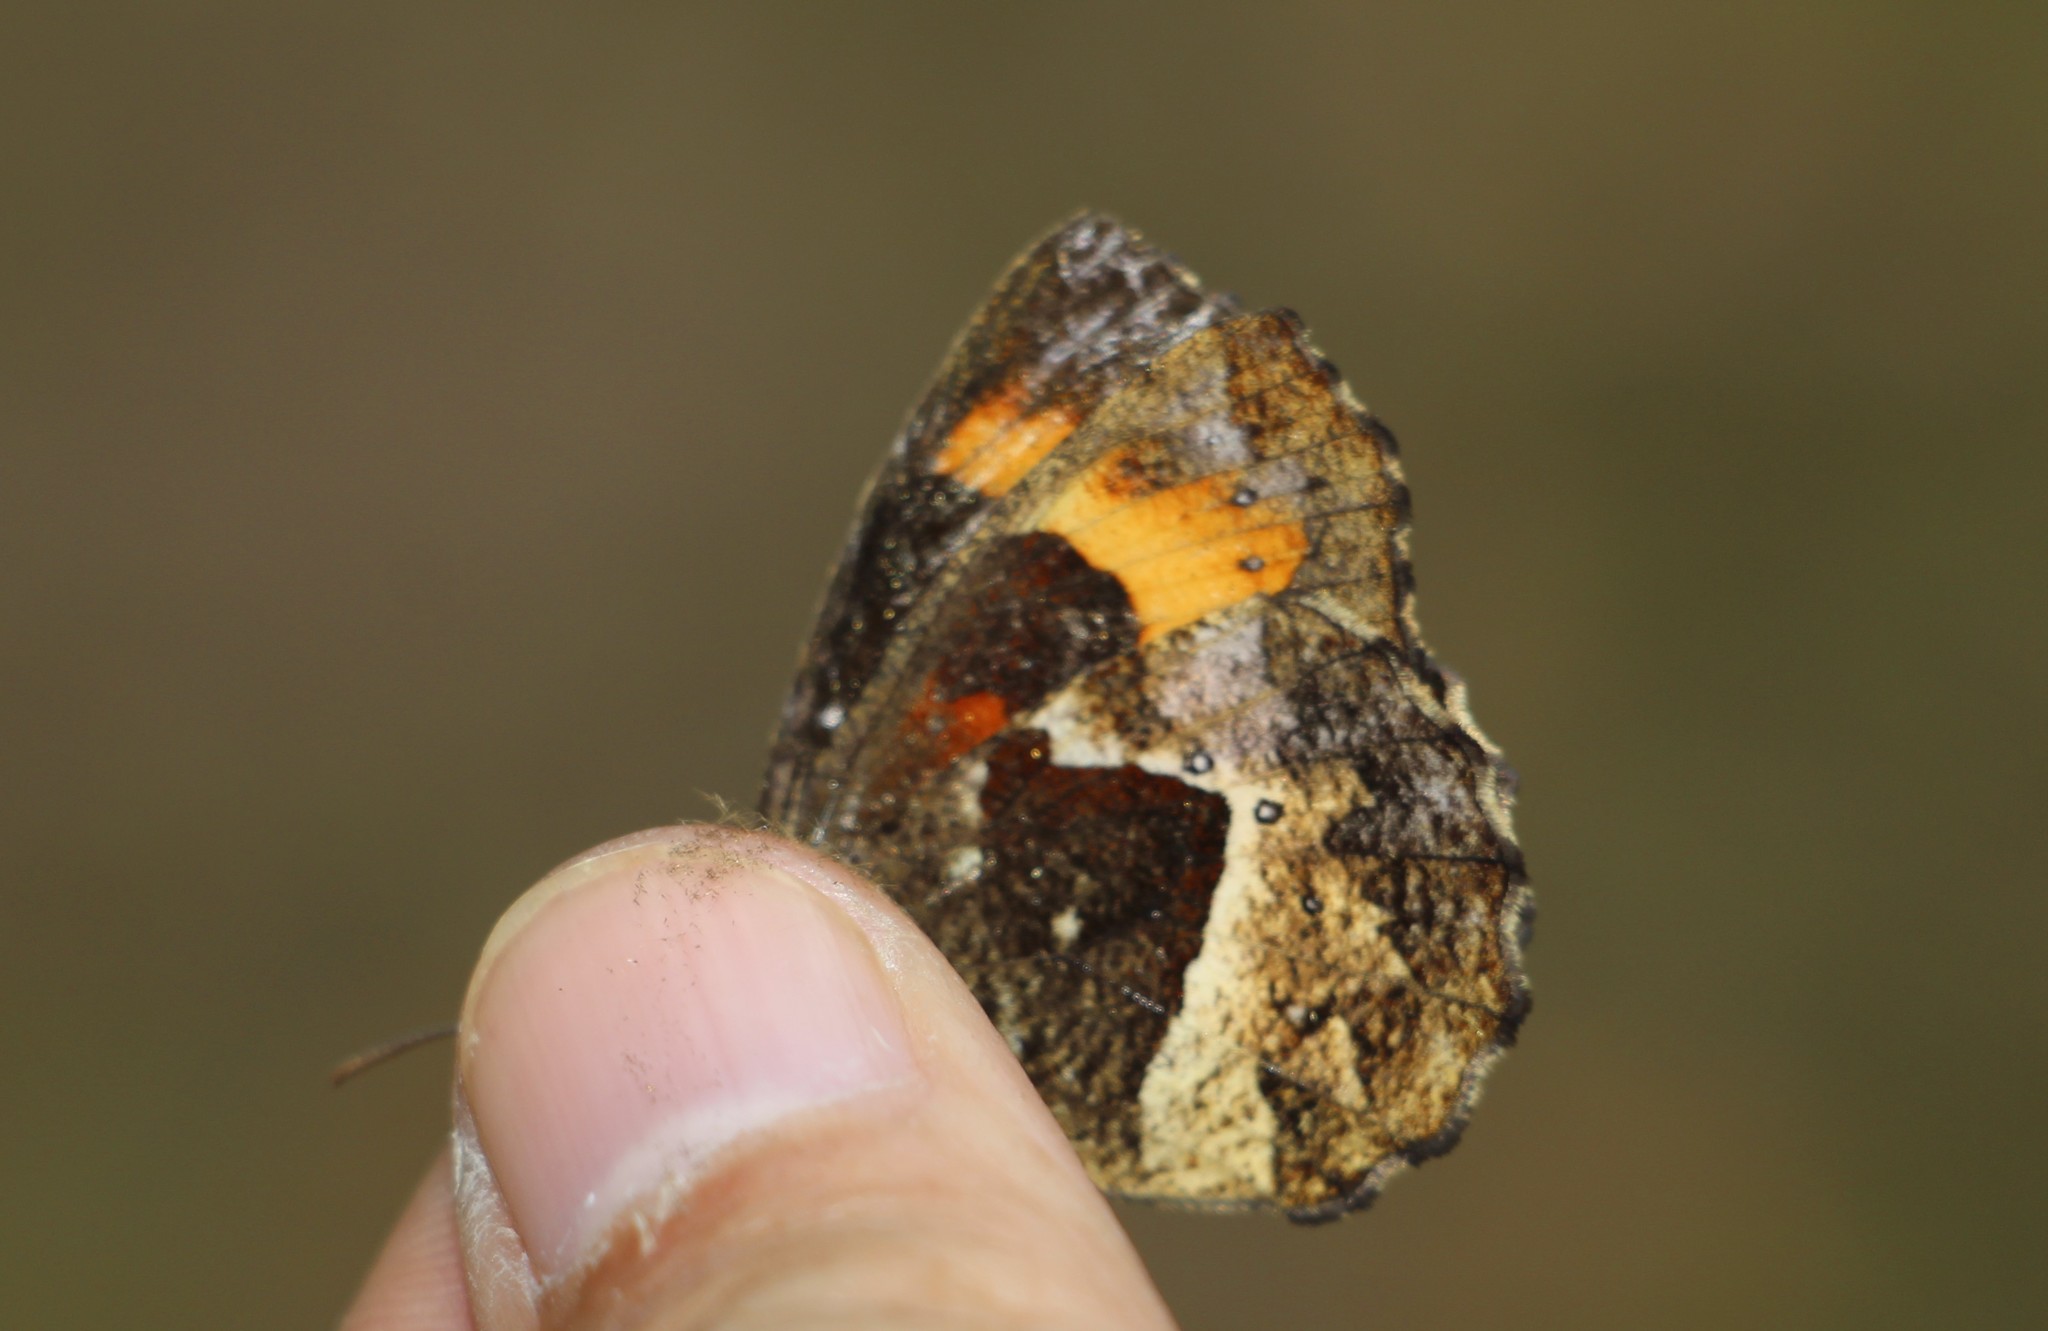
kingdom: Animalia
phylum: Arthropoda
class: Insecta
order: Lepidoptera
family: Nymphalidae
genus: Pedaliodes
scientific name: Pedaliodes phaea
